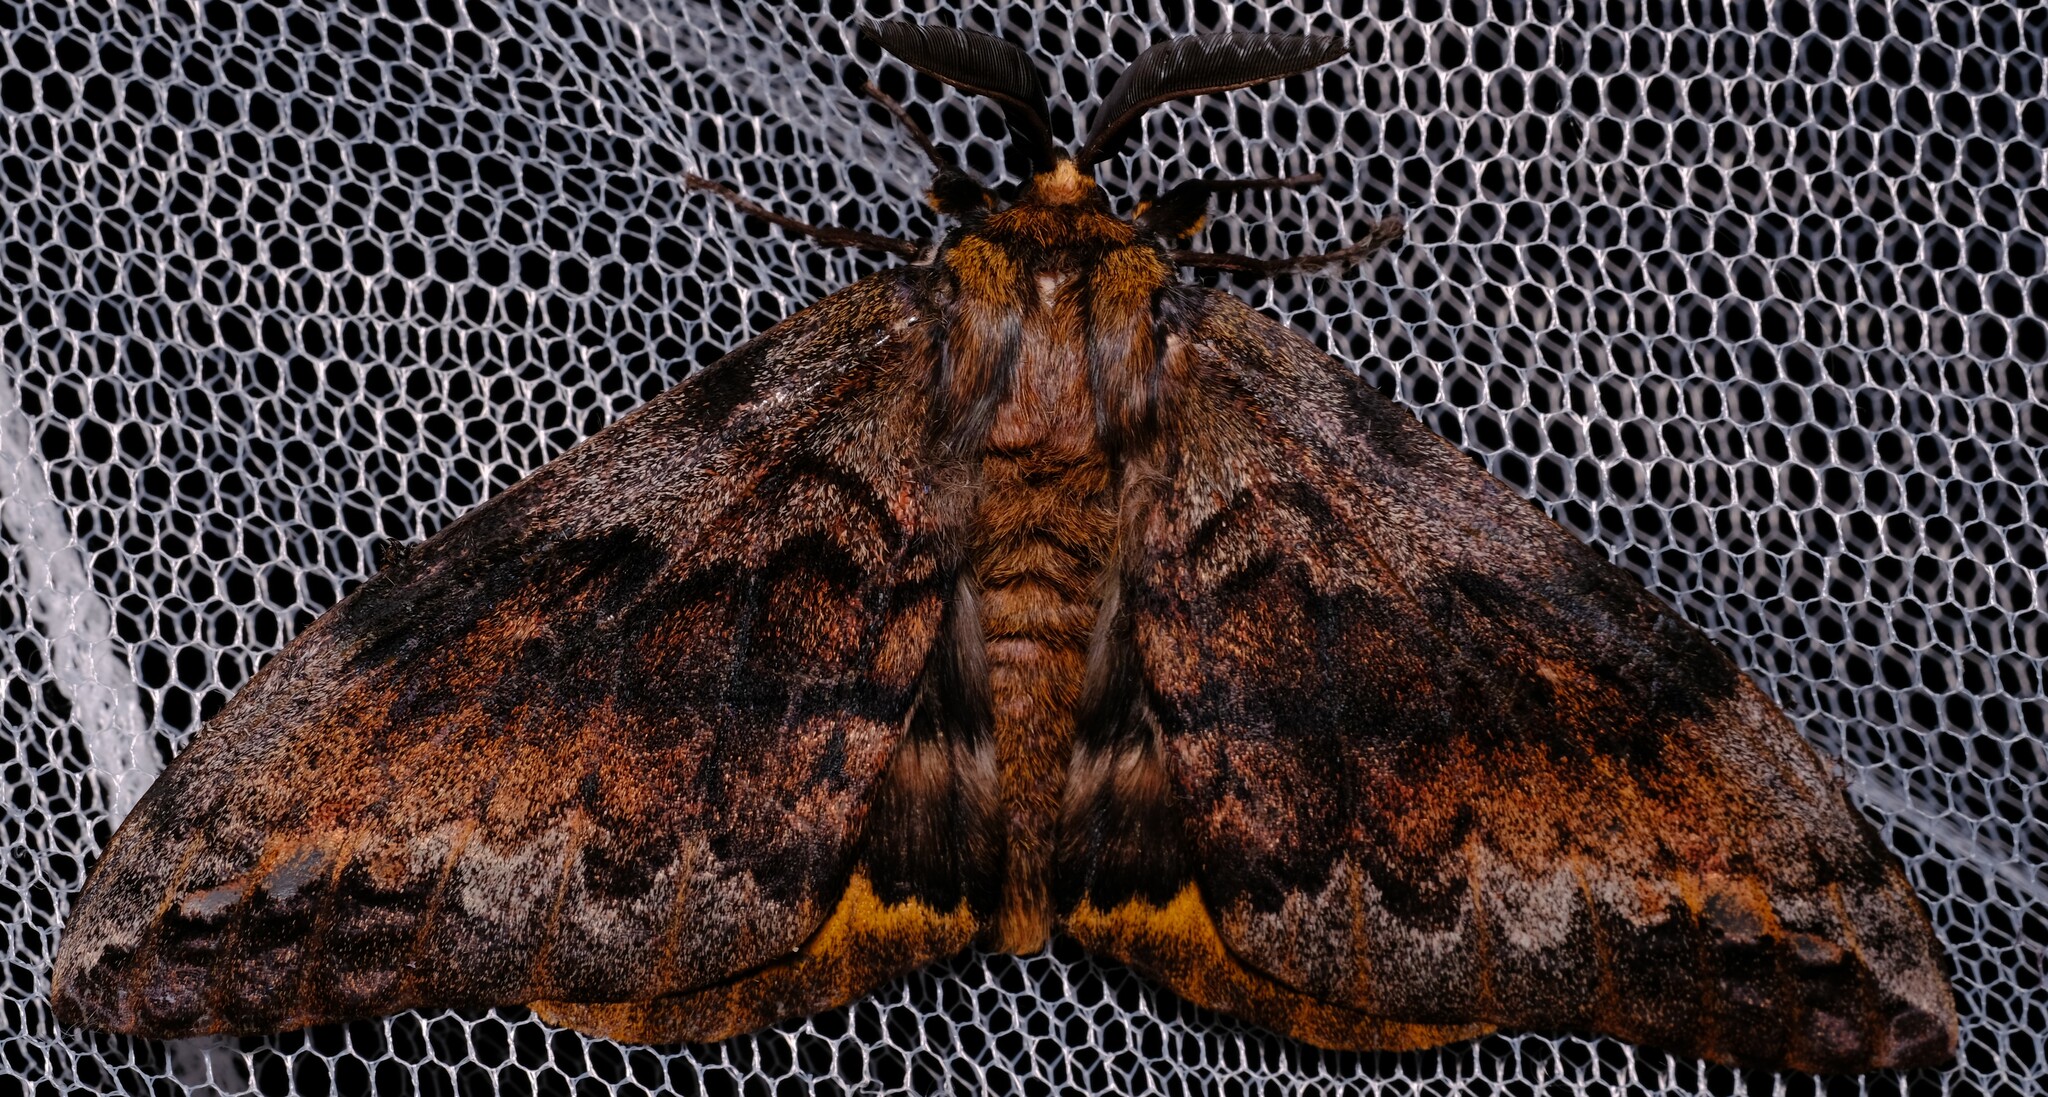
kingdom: Animalia
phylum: Arthropoda
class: Insecta
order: Lepidoptera
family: Anthelidae
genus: Chelepteryx
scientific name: Chelepteryx collesi
